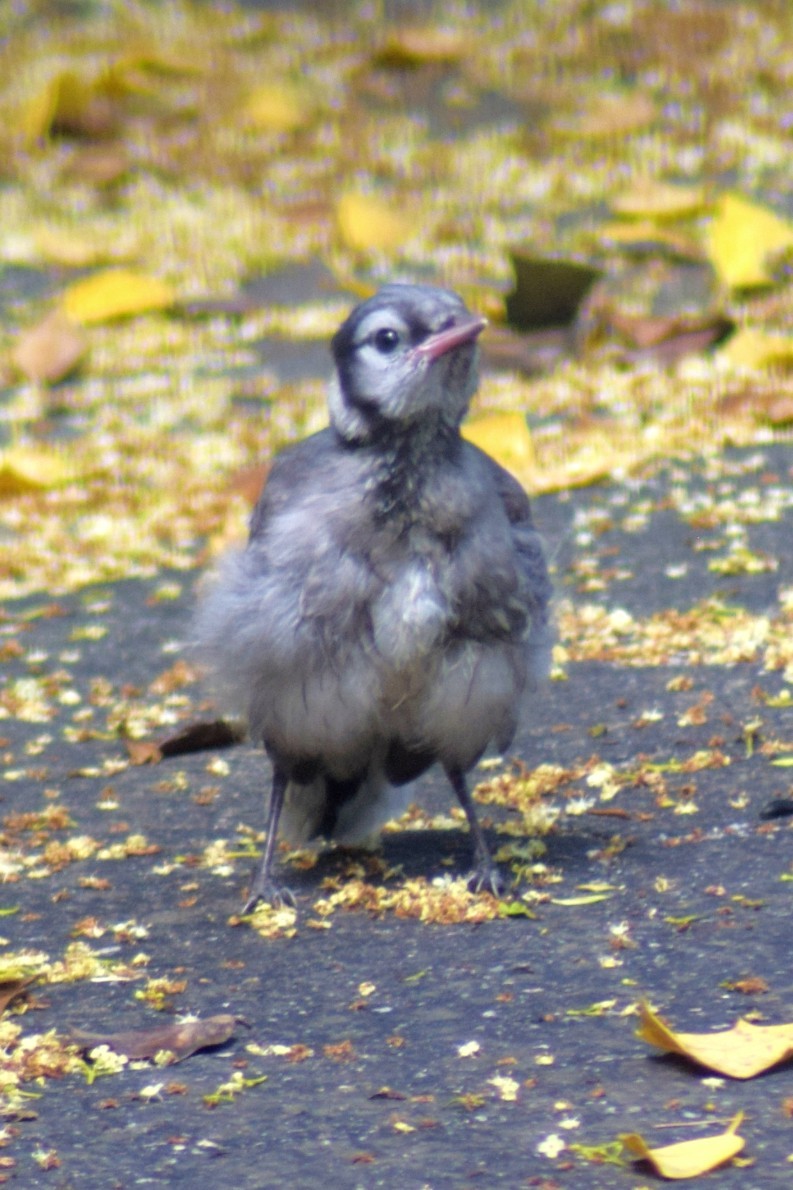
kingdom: Animalia
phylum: Chordata
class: Aves
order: Passeriformes
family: Corvidae
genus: Cyanocitta
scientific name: Cyanocitta cristata
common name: Blue jay
